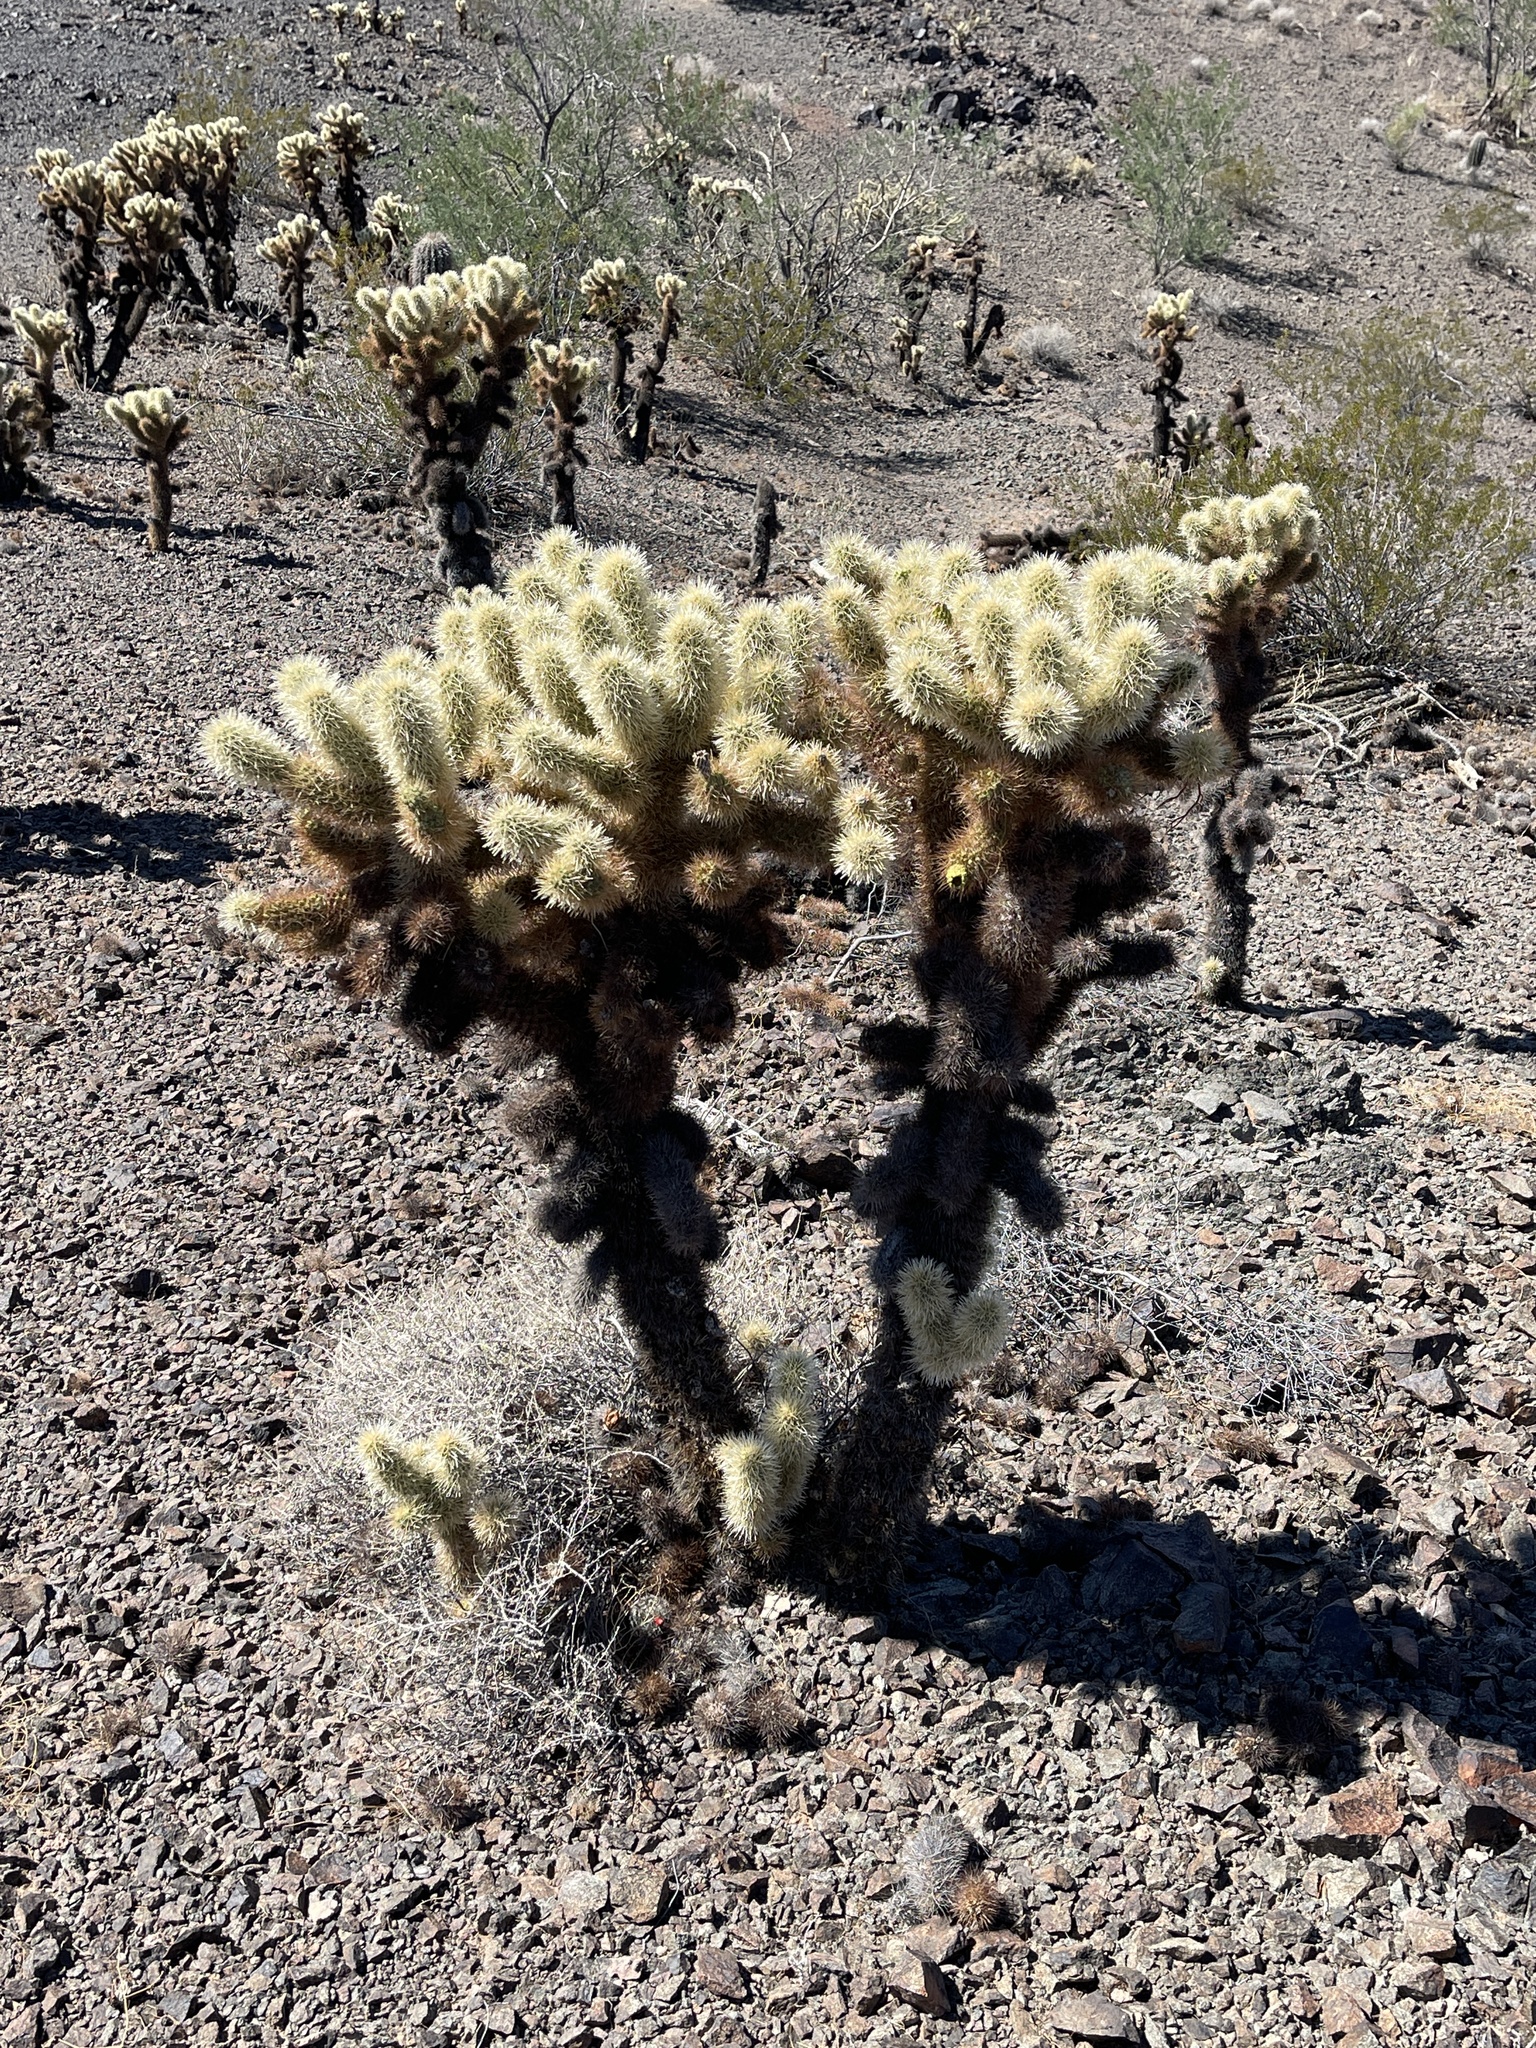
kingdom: Plantae
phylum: Tracheophyta
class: Magnoliopsida
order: Caryophyllales
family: Cactaceae
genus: Cylindropuntia
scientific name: Cylindropuntia fosbergii
